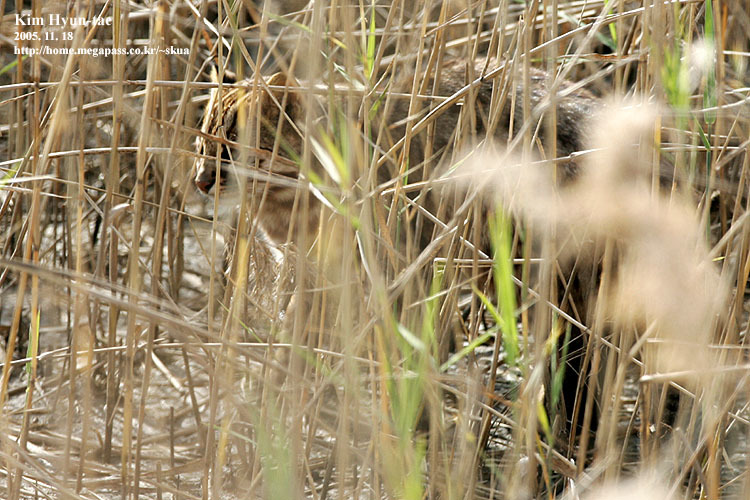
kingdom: Animalia
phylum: Chordata
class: Mammalia
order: Carnivora
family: Felidae
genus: Prionailurus
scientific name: Prionailurus bengalensis
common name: Leopard cat
